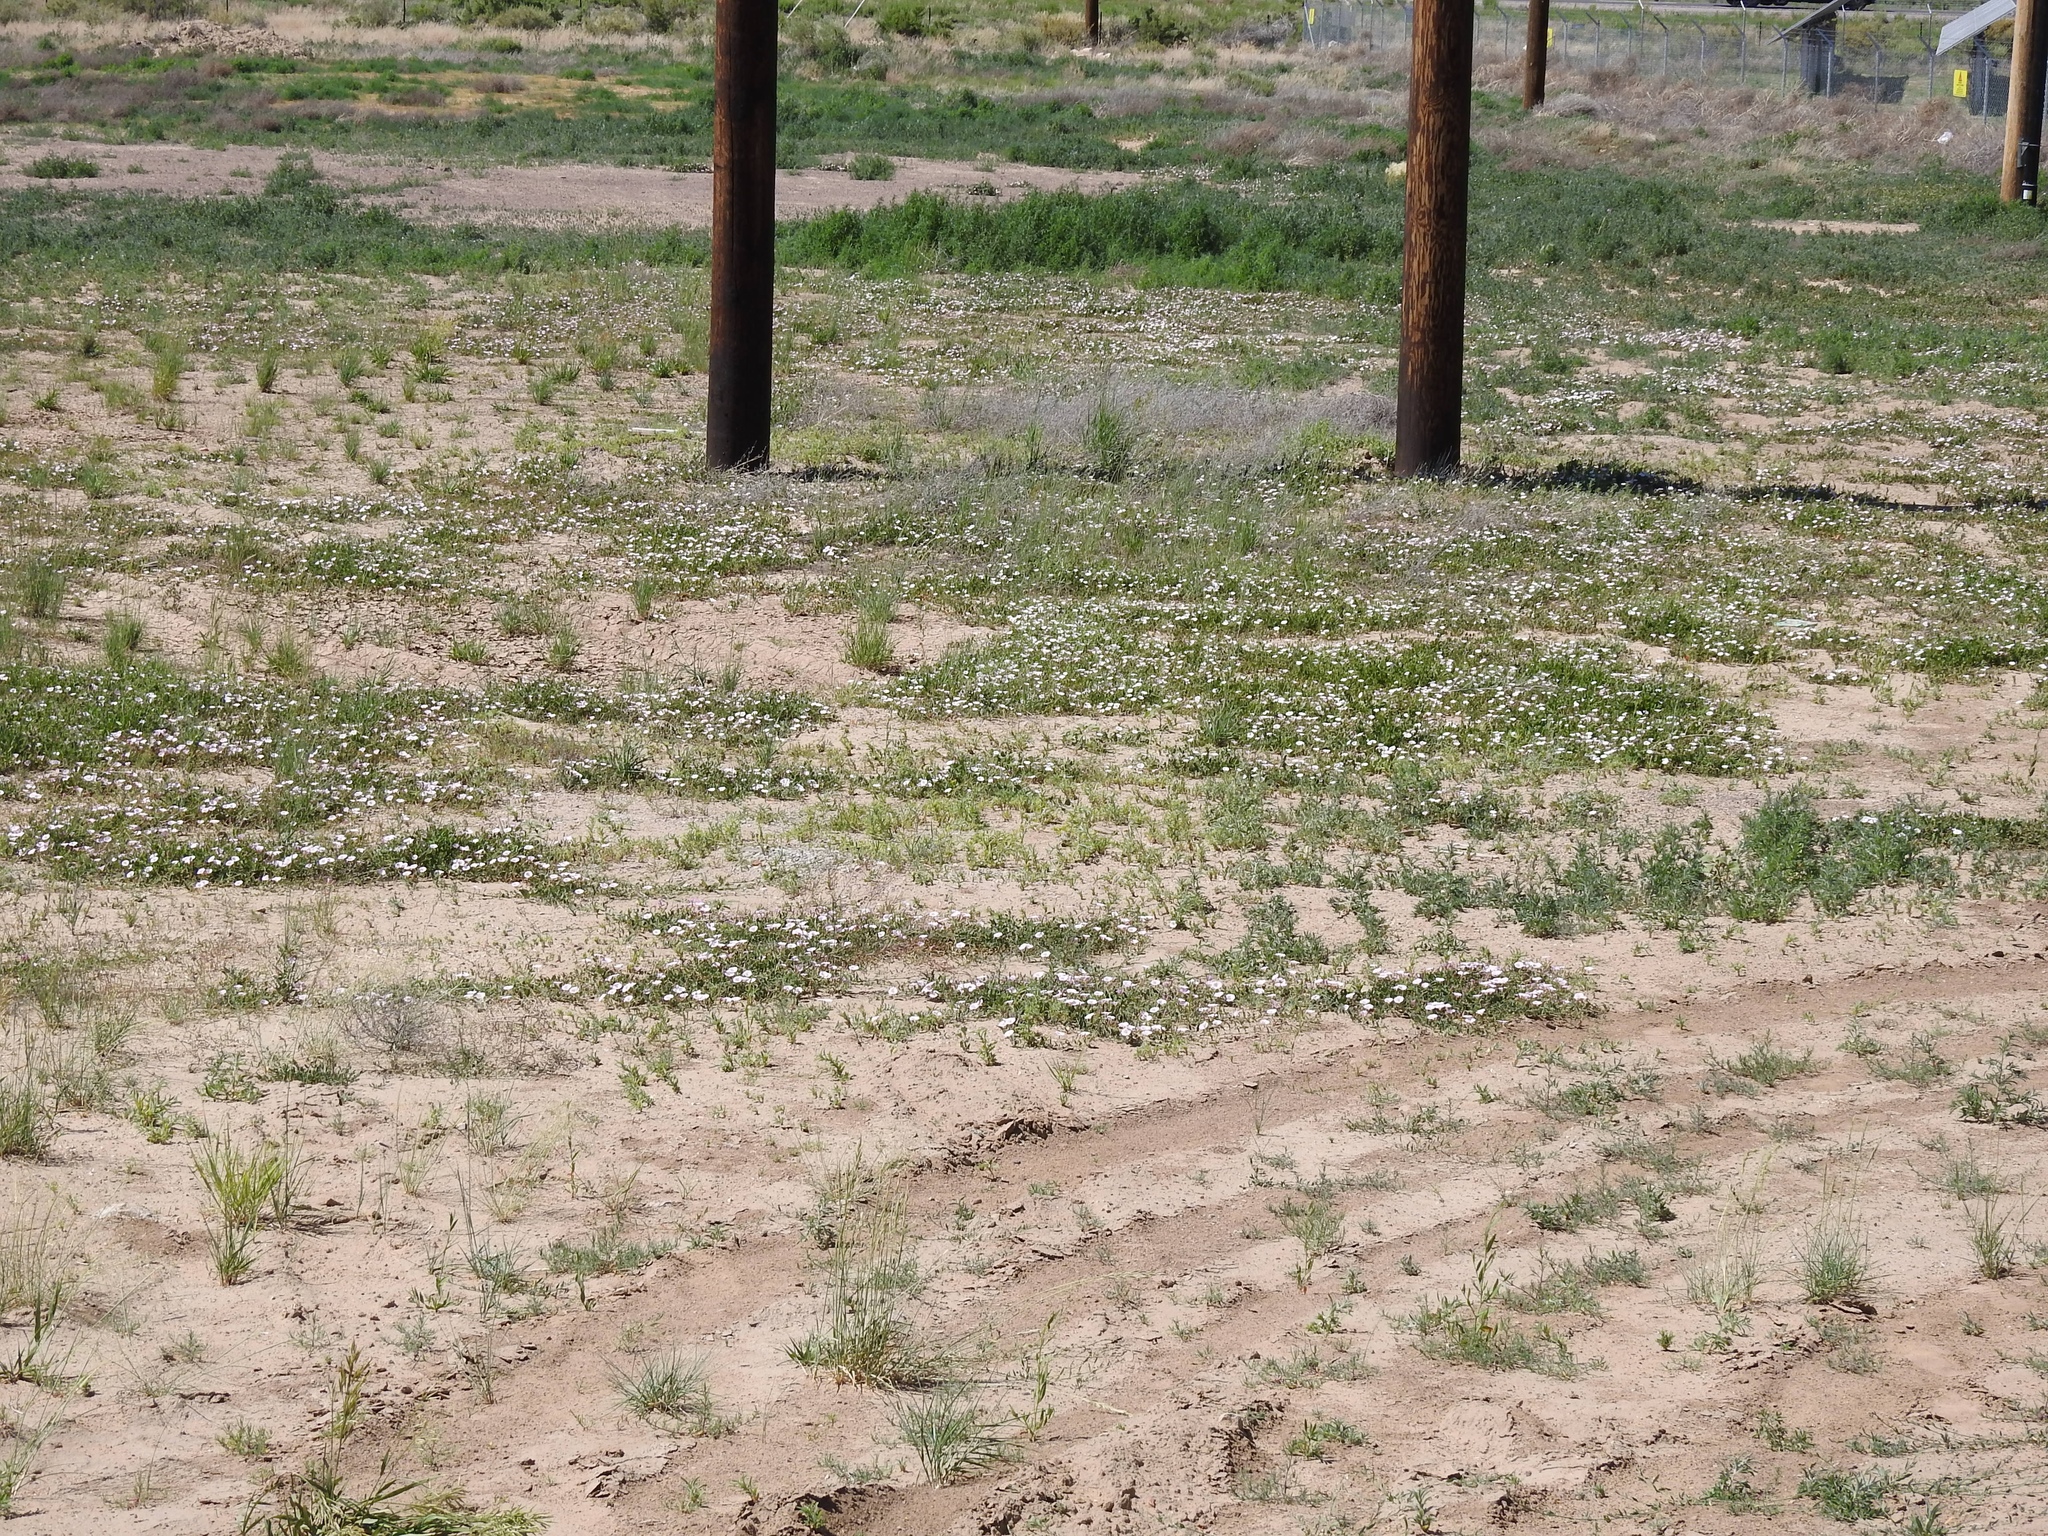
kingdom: Plantae
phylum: Tracheophyta
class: Magnoliopsida
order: Solanales
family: Convolvulaceae
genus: Convolvulus
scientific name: Convolvulus arvensis
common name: Field bindweed
